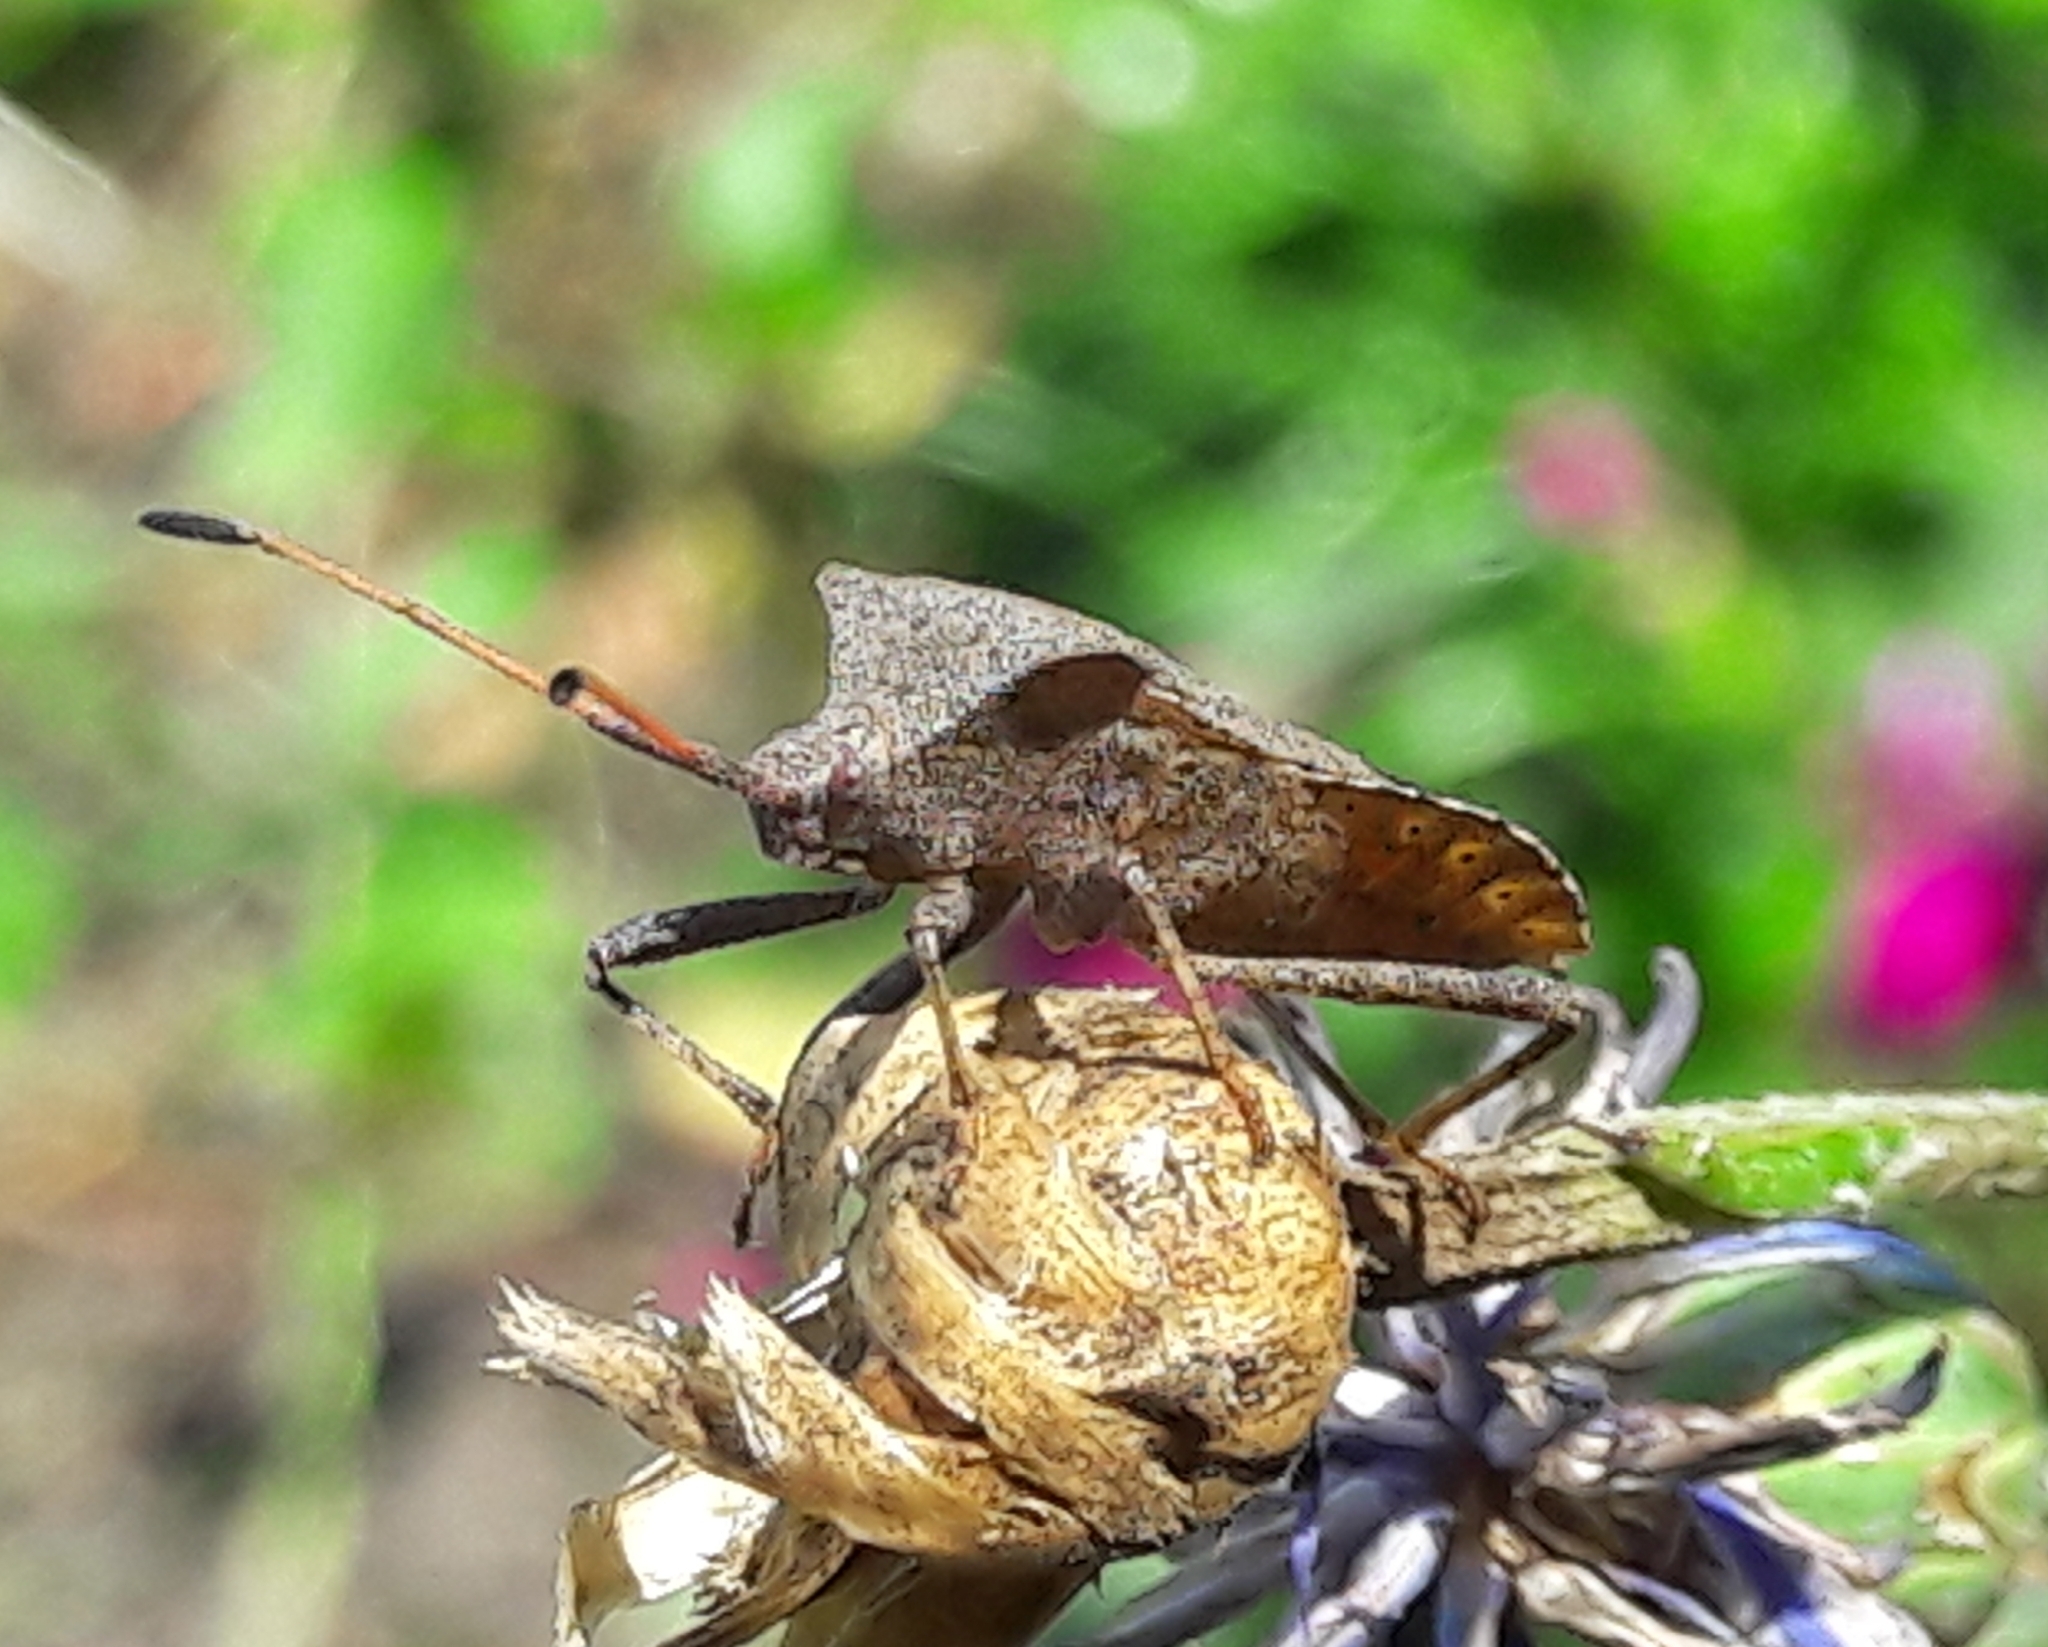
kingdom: Animalia
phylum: Arthropoda
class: Insecta
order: Hemiptera
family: Coreidae
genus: Coreus
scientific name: Coreus marginatus
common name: Dock bug
